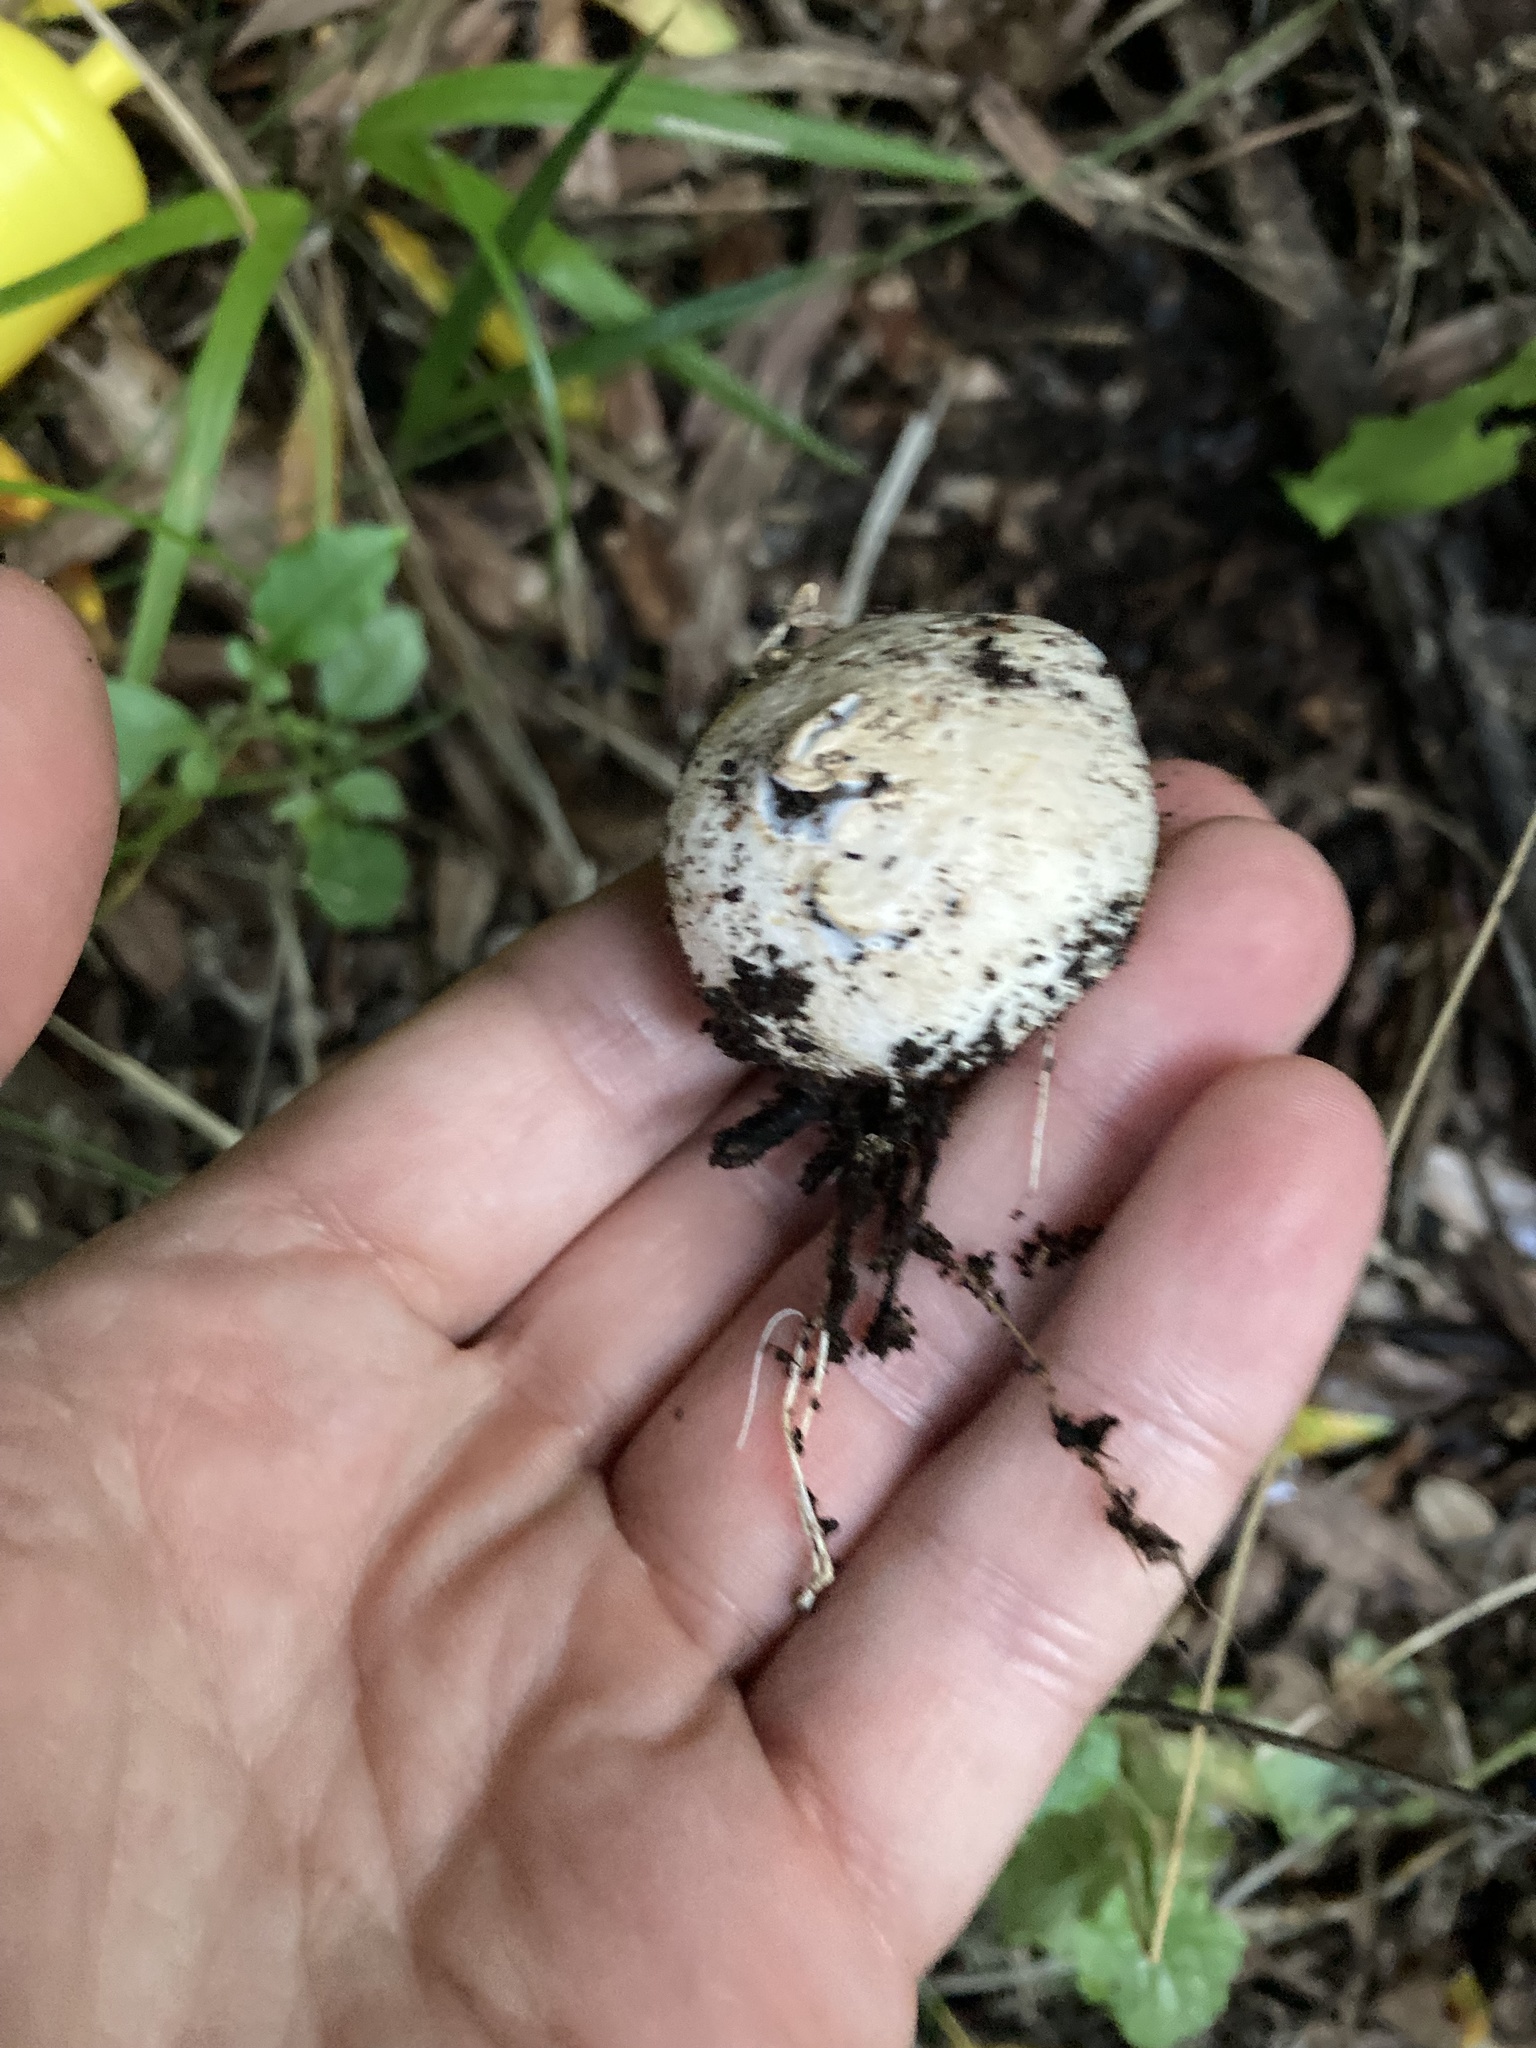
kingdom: Fungi
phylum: Basidiomycota
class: Agaricomycetes
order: Phallales
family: Phallaceae
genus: Ileodictyon
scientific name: Ileodictyon cibarium
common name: Basket fungus
